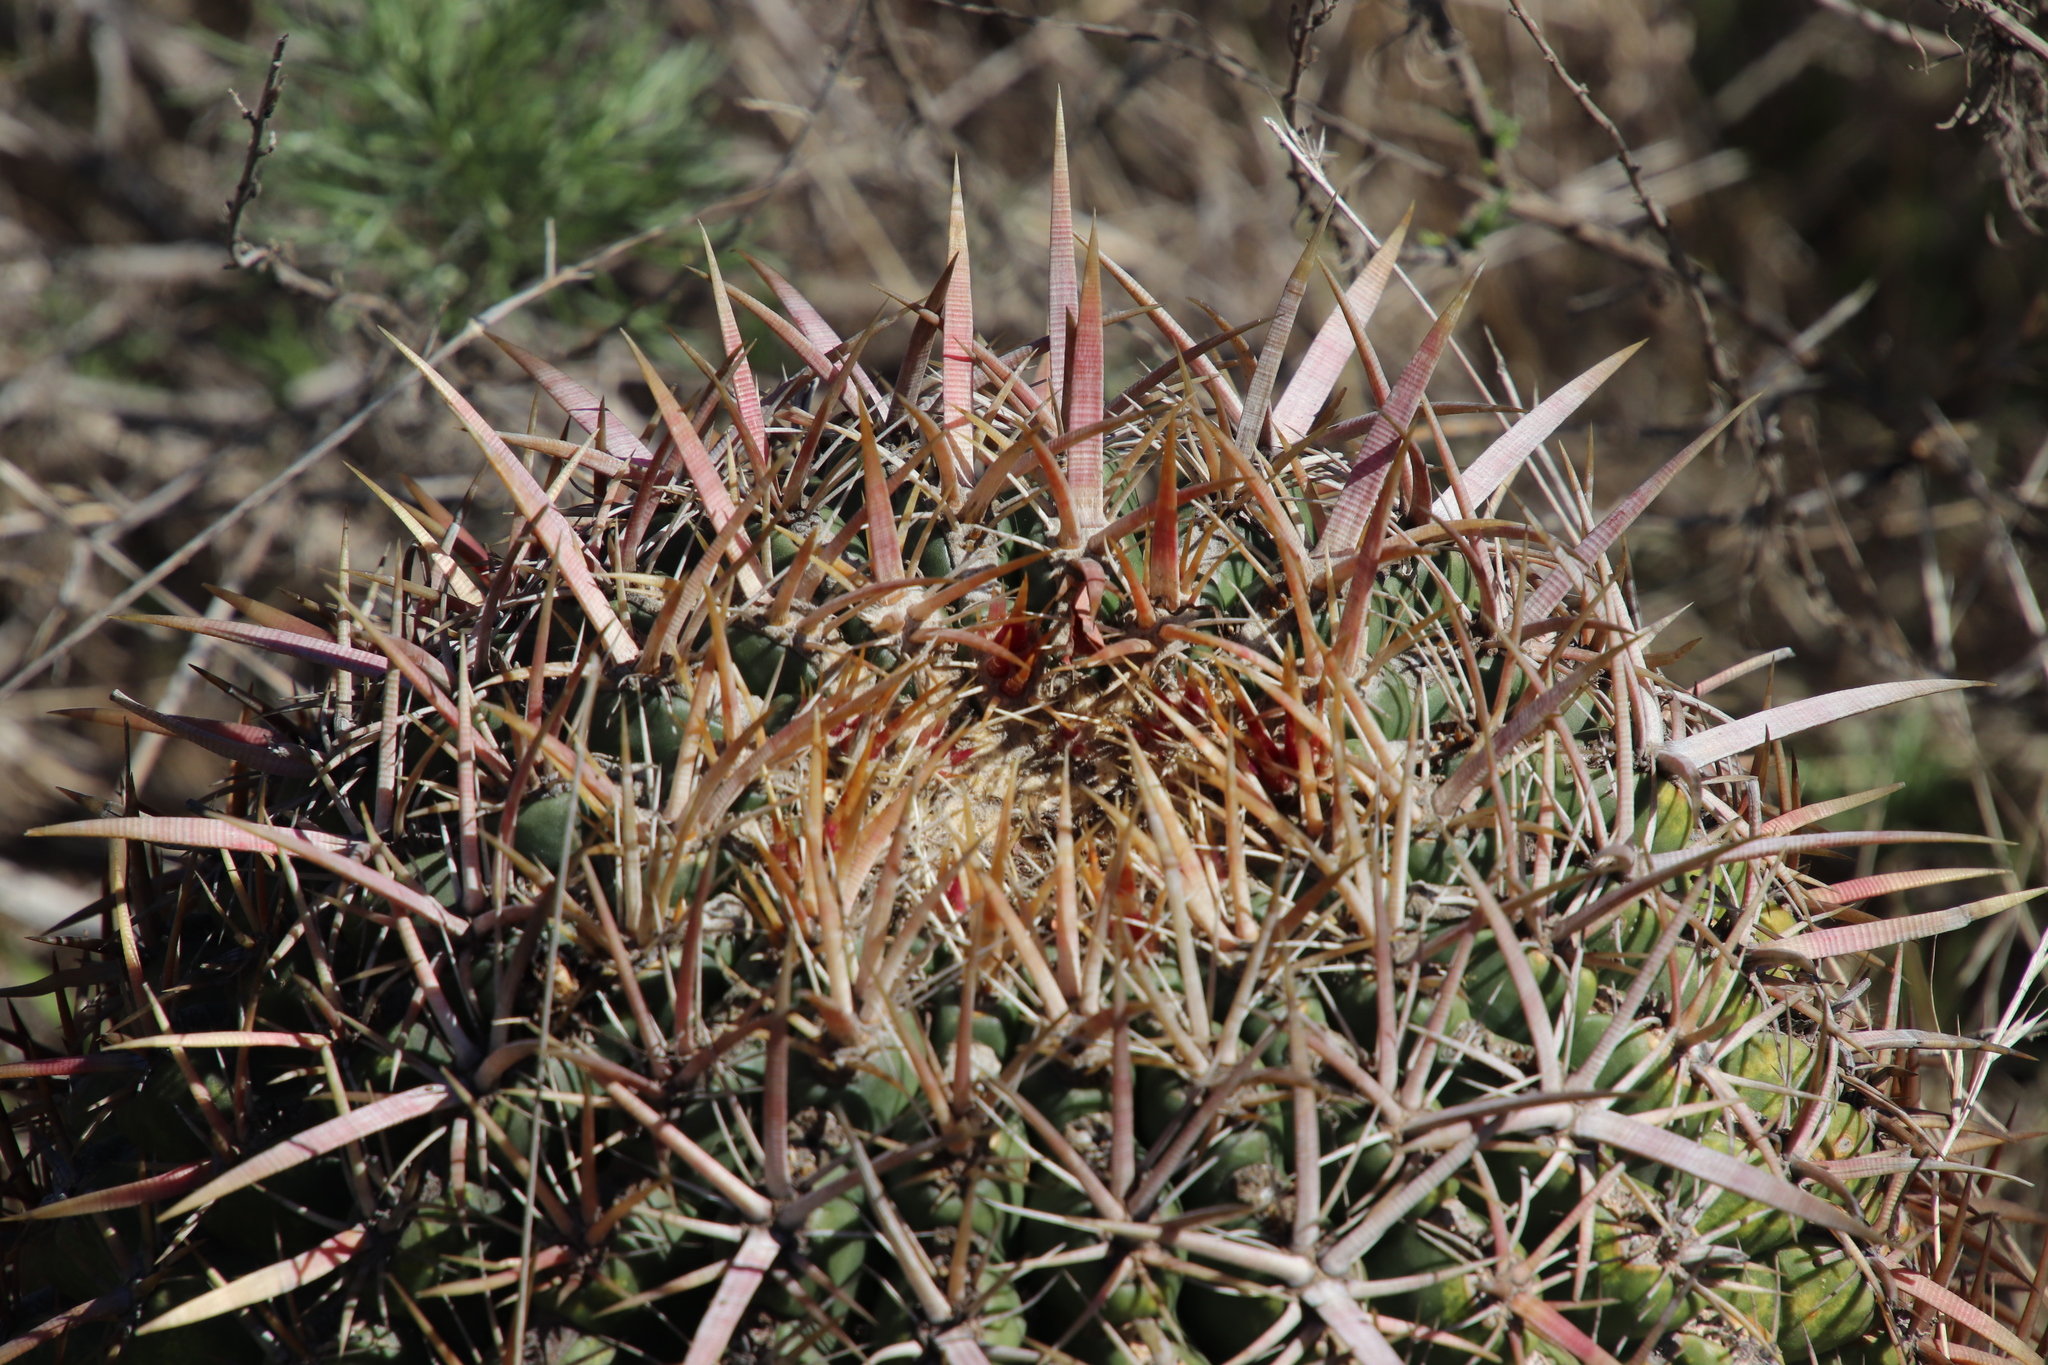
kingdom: Plantae
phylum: Tracheophyta
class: Magnoliopsida
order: Caryophyllales
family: Cactaceae
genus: Ferocactus
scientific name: Ferocactus viridescens
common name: San diego barrel cactus
